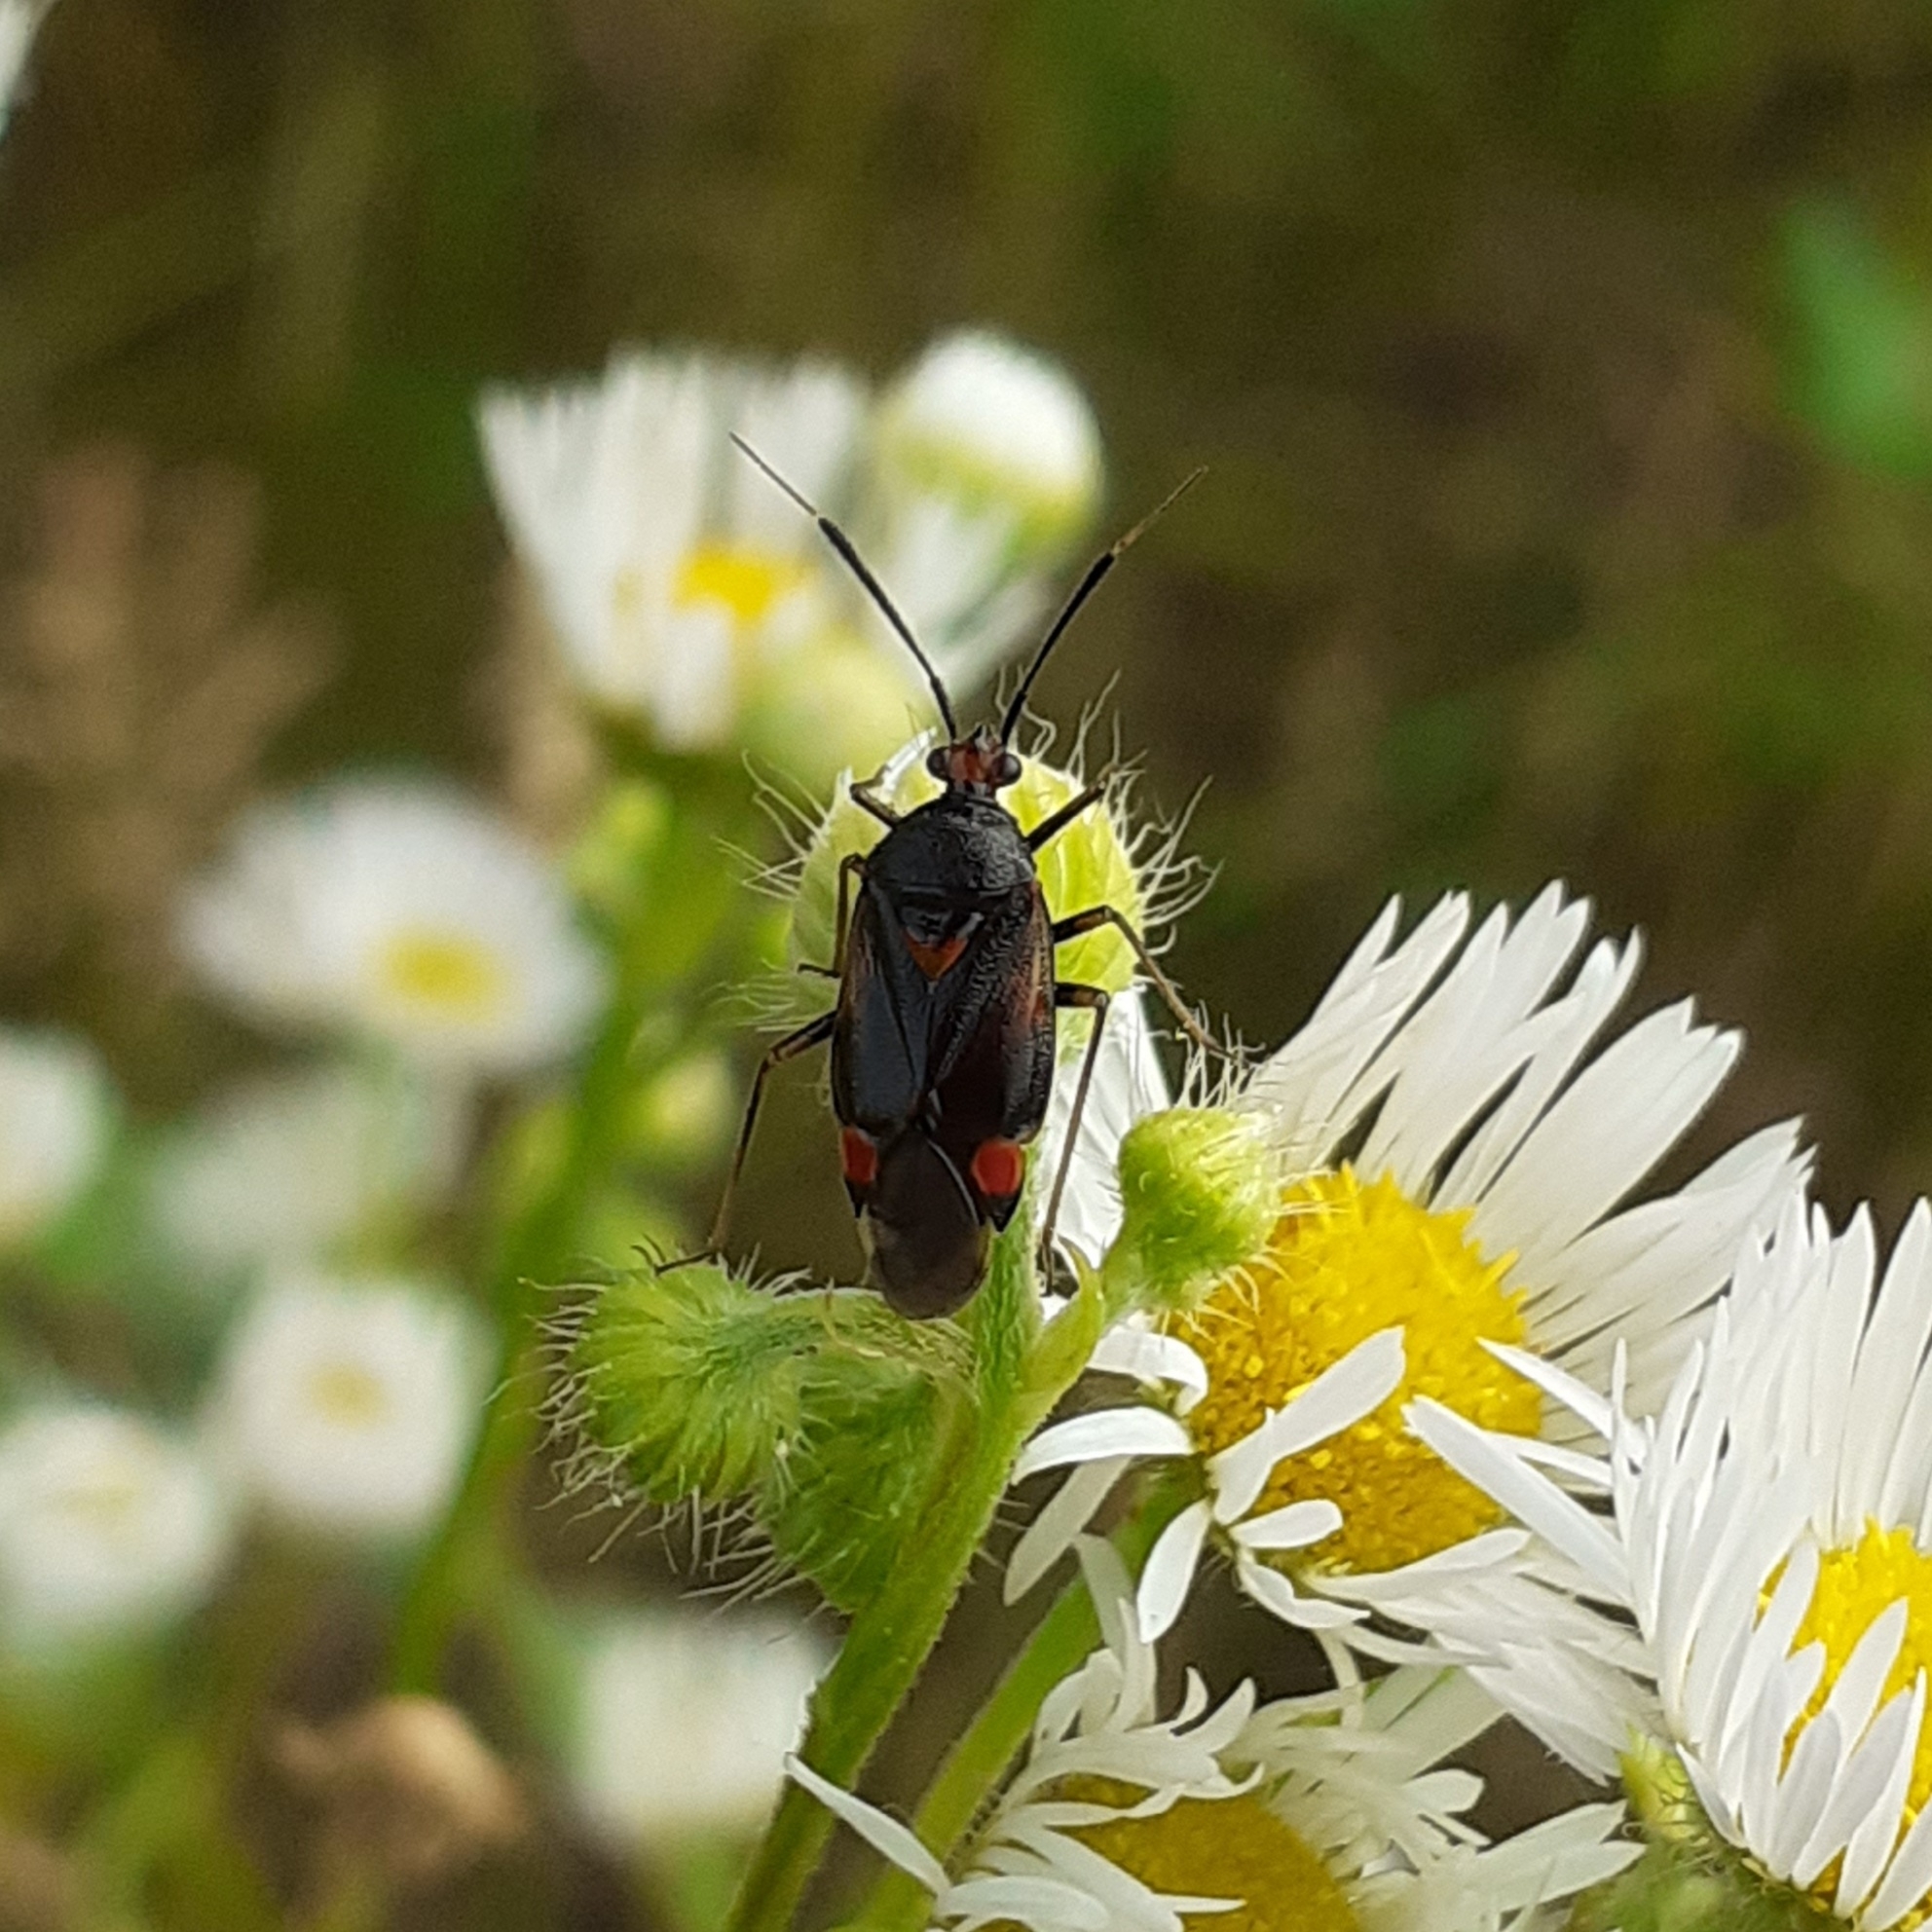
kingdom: Animalia
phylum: Arthropoda
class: Insecta
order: Hemiptera
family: Miridae
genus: Deraeocoris
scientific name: Deraeocoris ruber
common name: Plant bug
